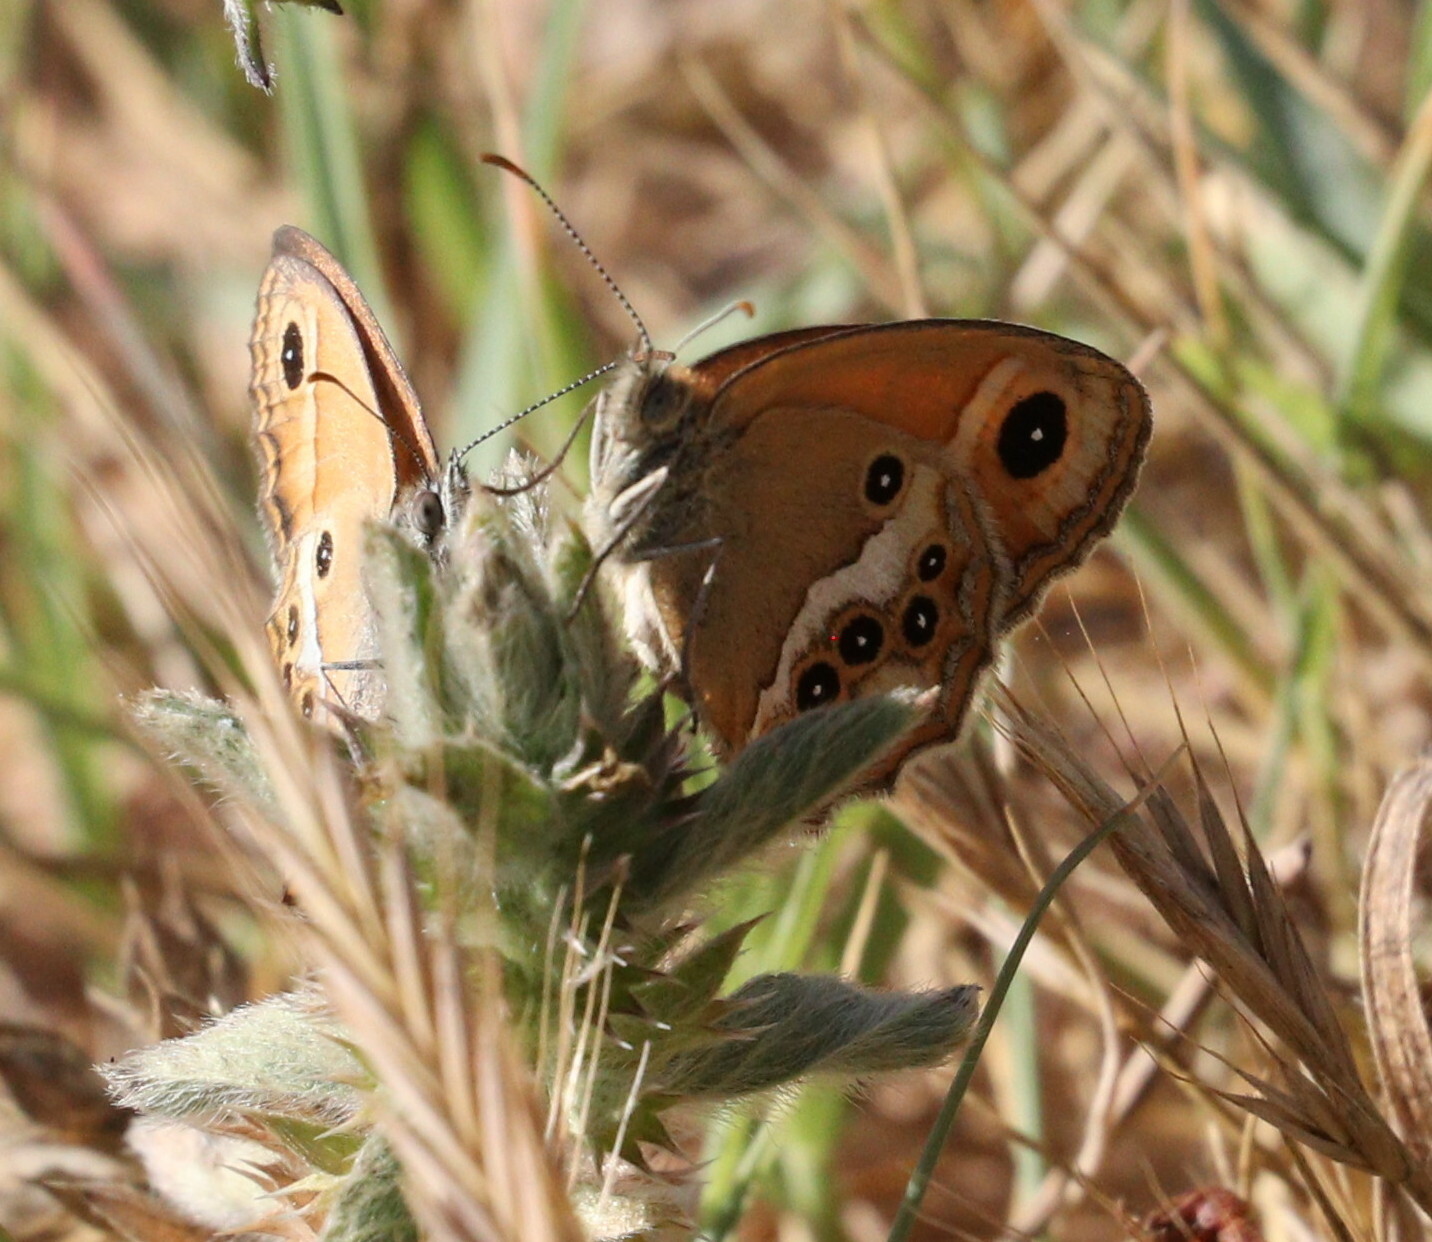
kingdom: Animalia
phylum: Arthropoda
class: Insecta
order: Lepidoptera
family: Nymphalidae
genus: Coenonympha
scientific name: Coenonympha dorus
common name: Dusky heath
